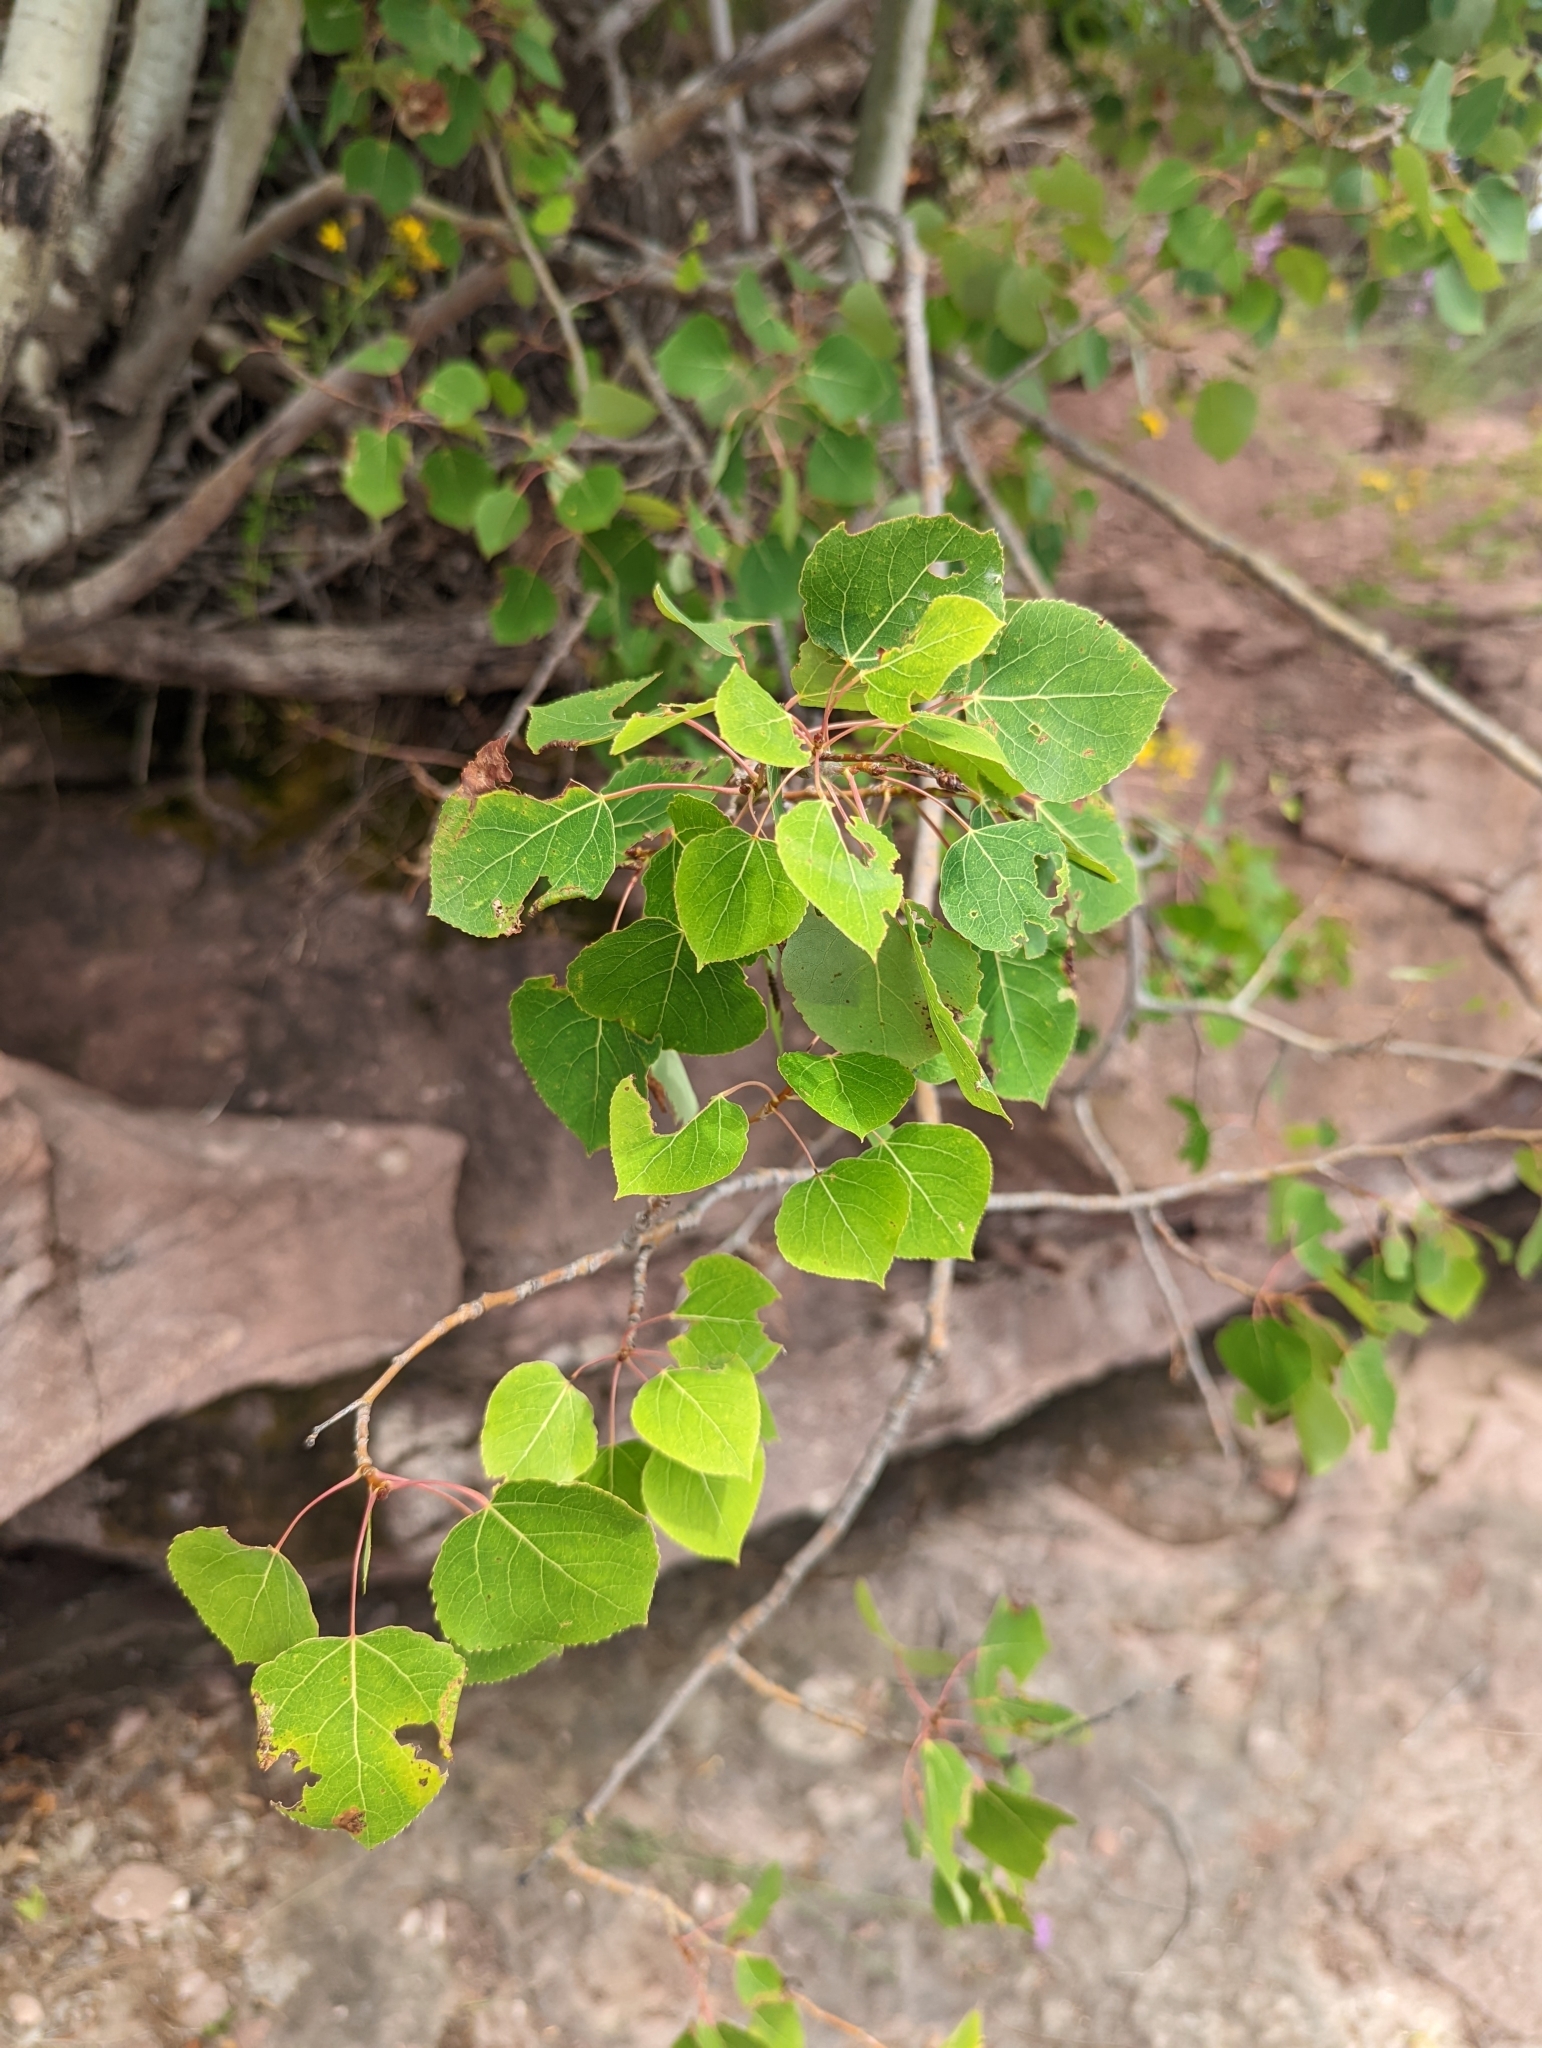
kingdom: Plantae
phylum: Tracheophyta
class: Magnoliopsida
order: Malpighiales
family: Salicaceae
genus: Populus
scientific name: Populus tremuloides
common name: Quaking aspen
